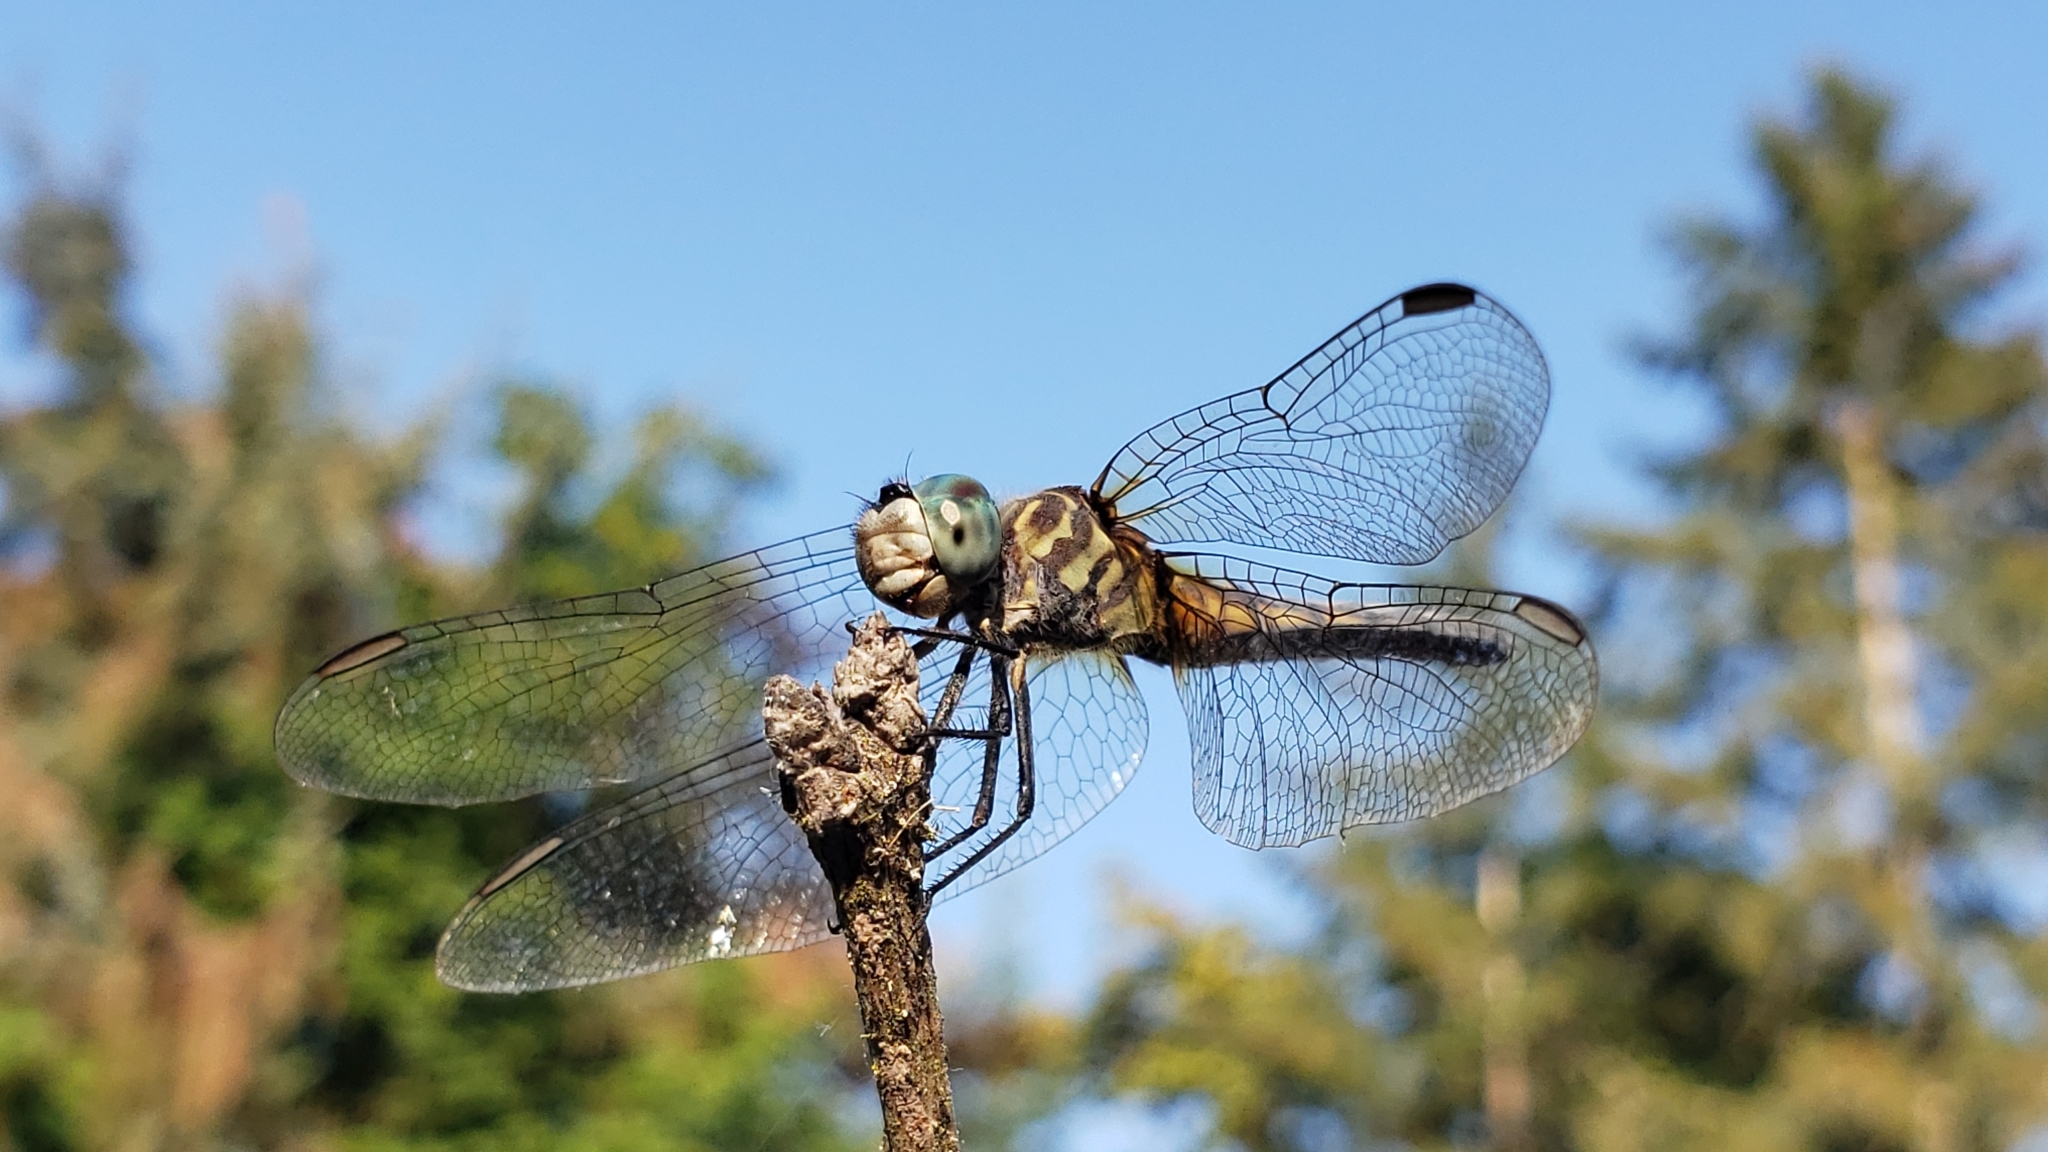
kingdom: Animalia
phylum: Arthropoda
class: Insecta
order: Odonata
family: Libellulidae
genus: Pachydiplax
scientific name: Pachydiplax longipennis
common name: Blue dasher
